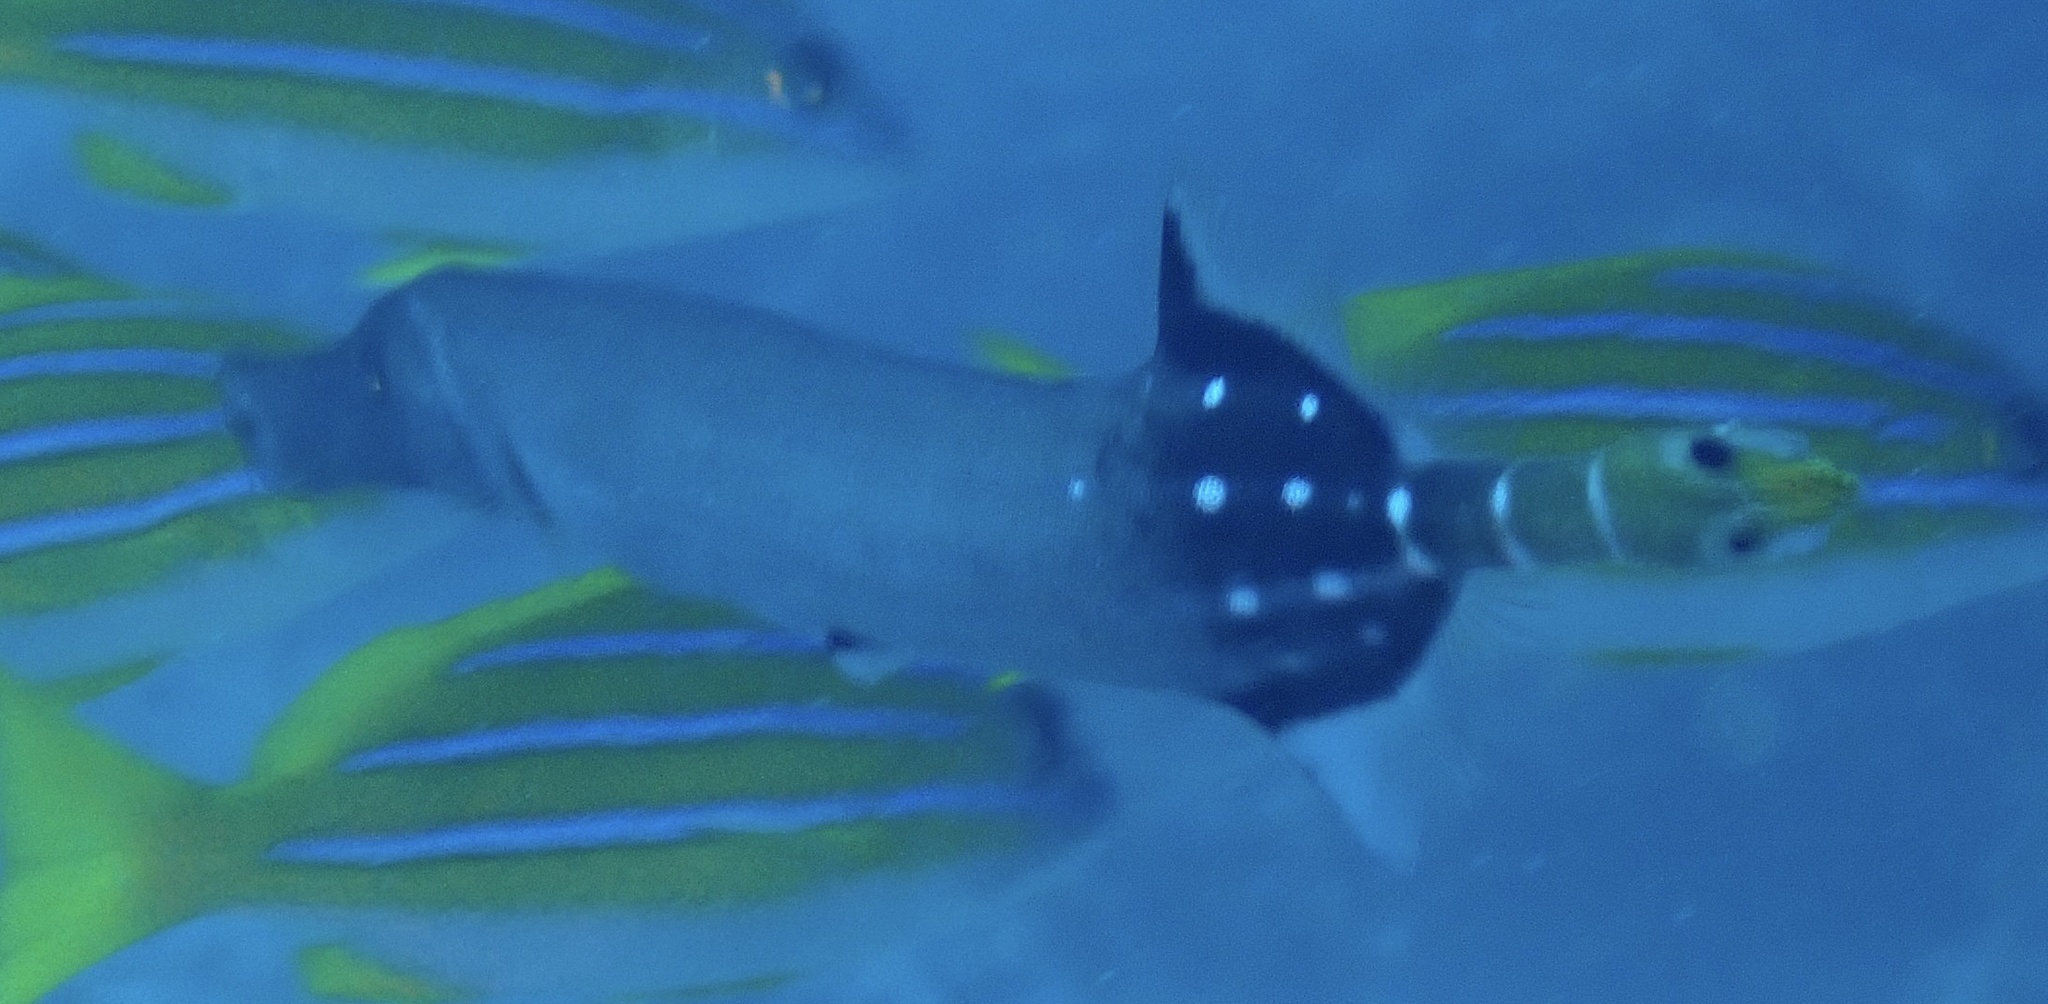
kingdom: Animalia
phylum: Chordata
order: Syngnathiformes
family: Aulostomidae
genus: Aulostomus
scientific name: Aulostomus chinensis
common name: Chinese trumpetfish
